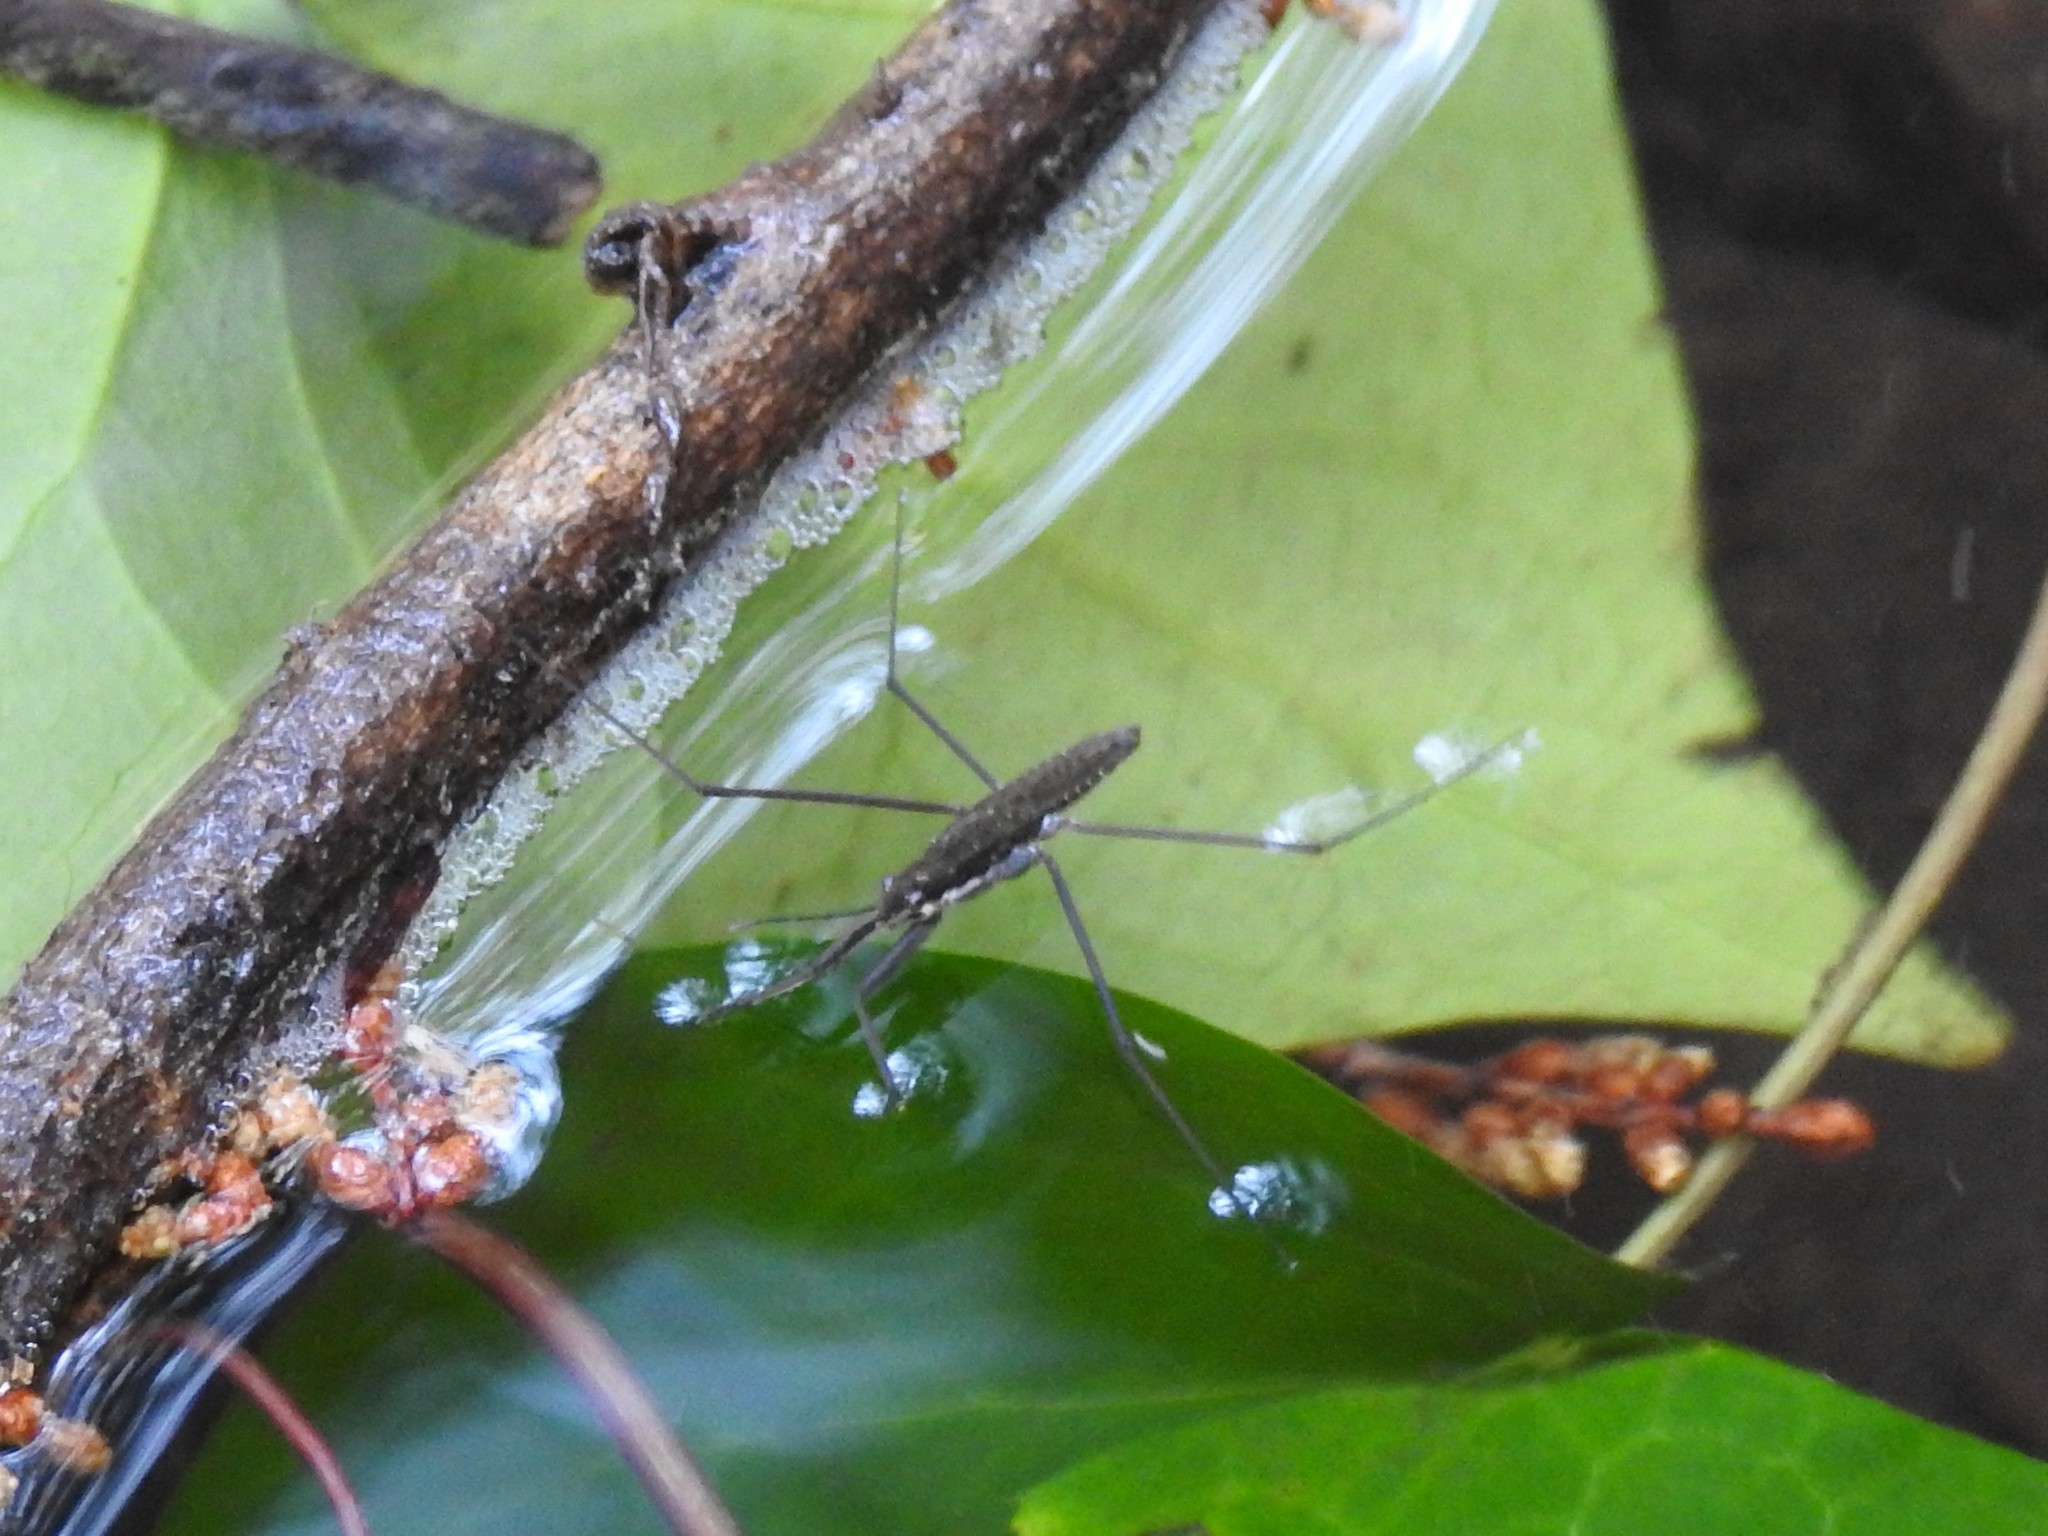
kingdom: Animalia
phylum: Arthropoda
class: Insecta
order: Hemiptera
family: Gerridae
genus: Aquarius
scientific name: Aquarius remigis
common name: Common water strider
